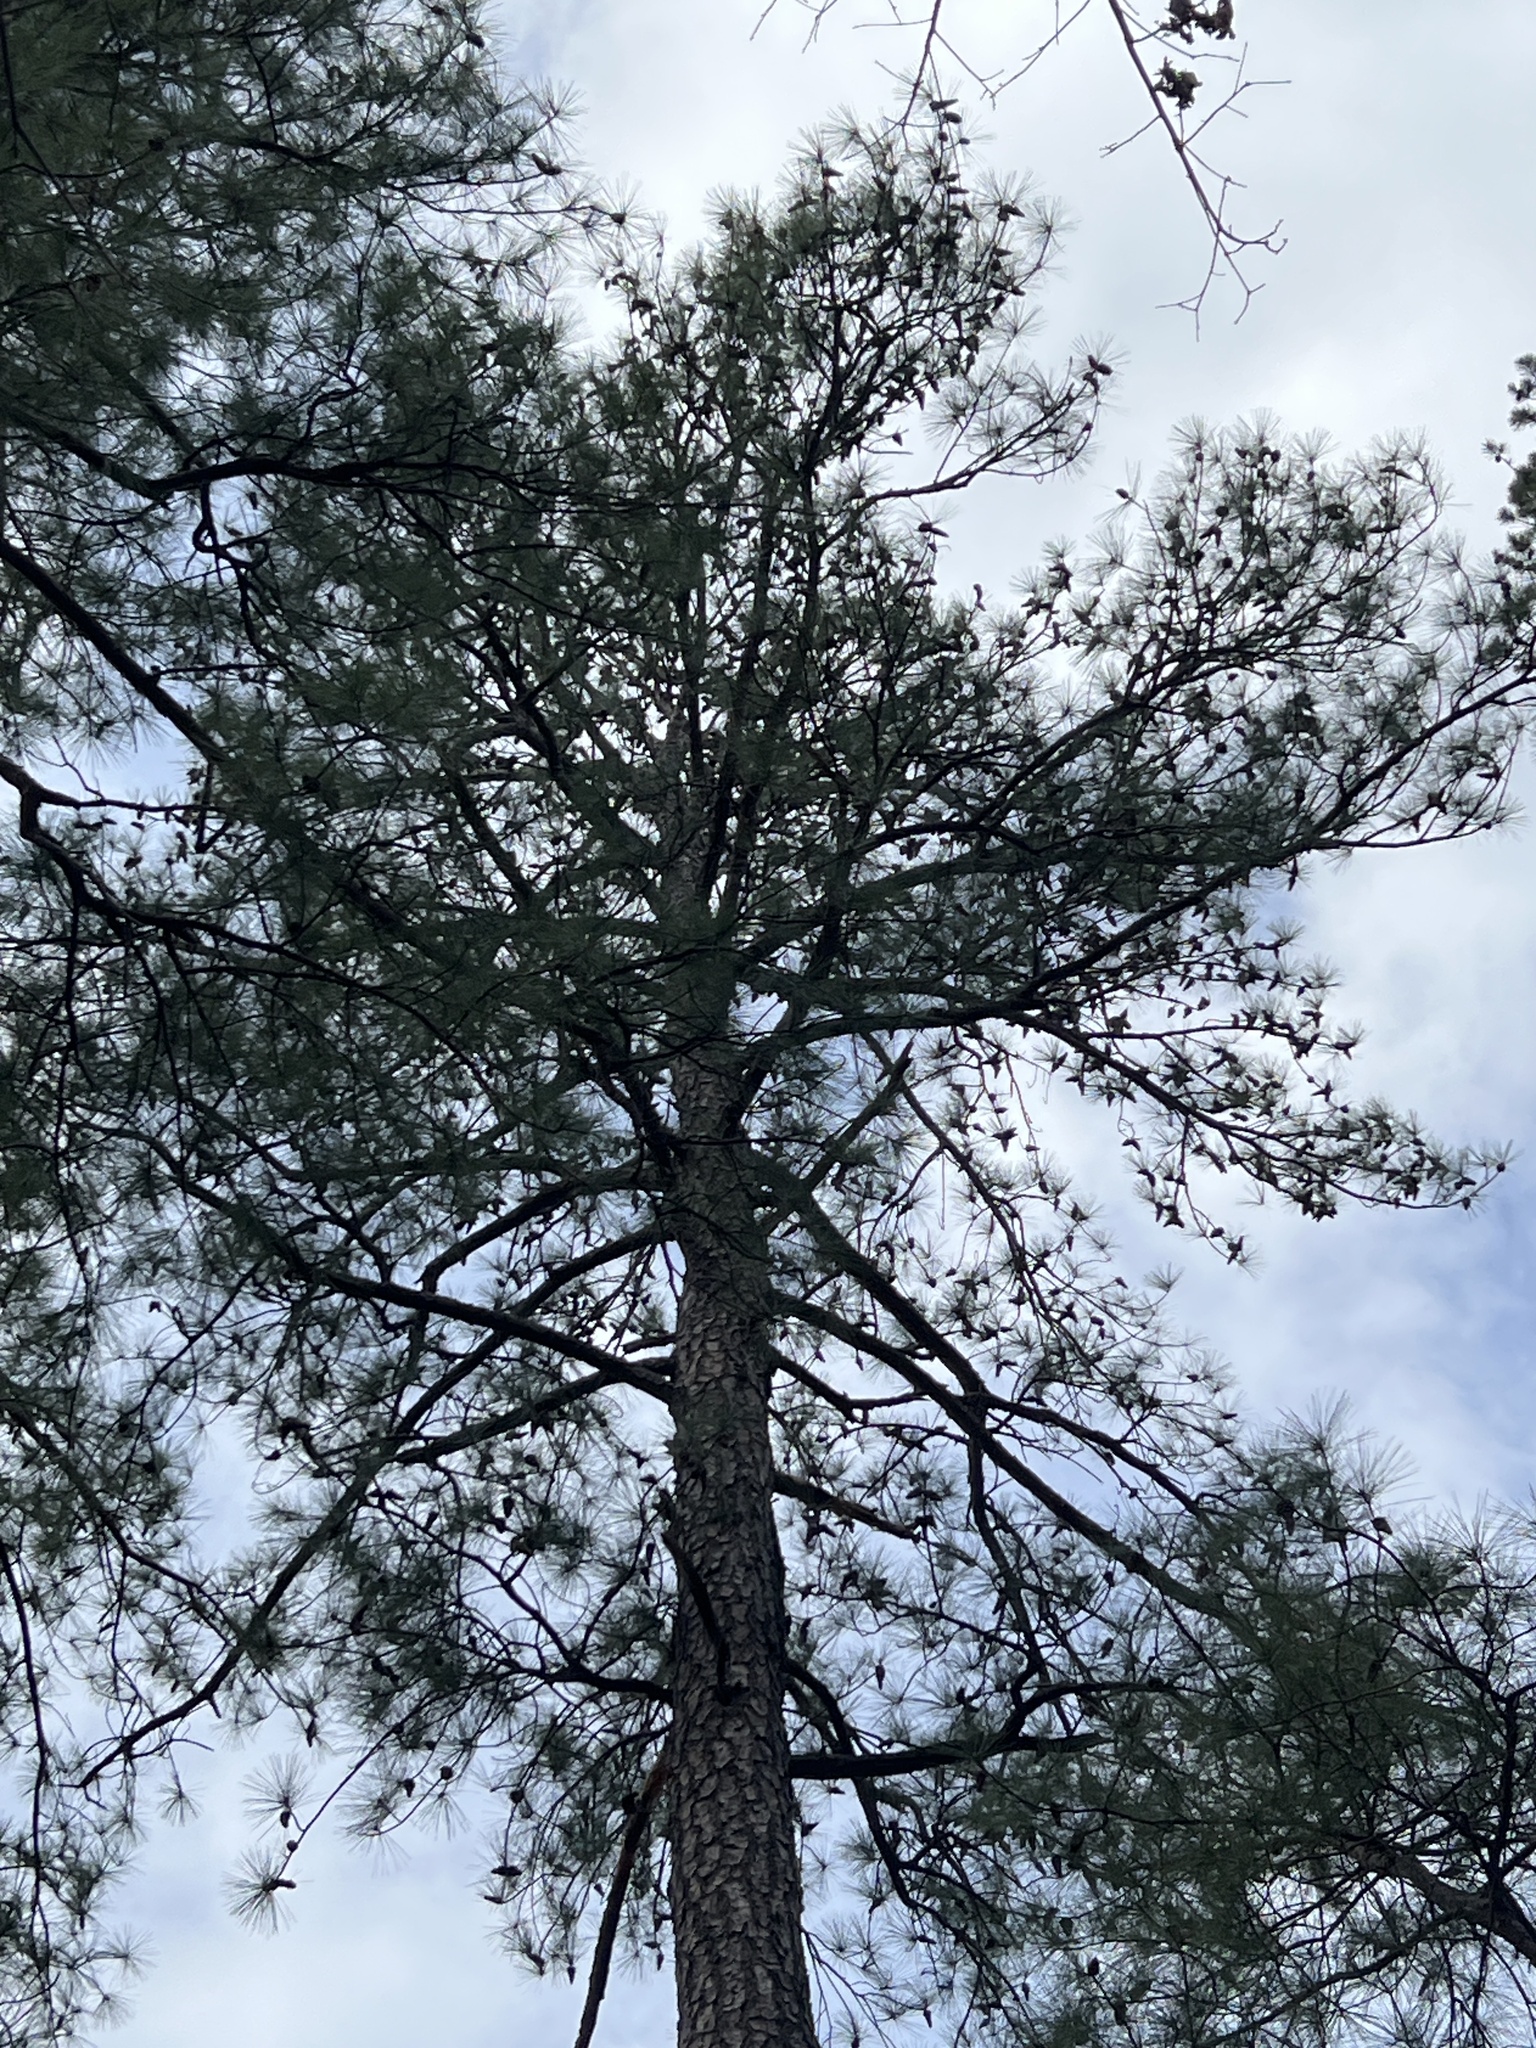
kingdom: Plantae
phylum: Tracheophyta
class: Pinopsida
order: Pinales
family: Pinaceae
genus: Pinus
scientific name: Pinus taeda
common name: Loblolly pine
